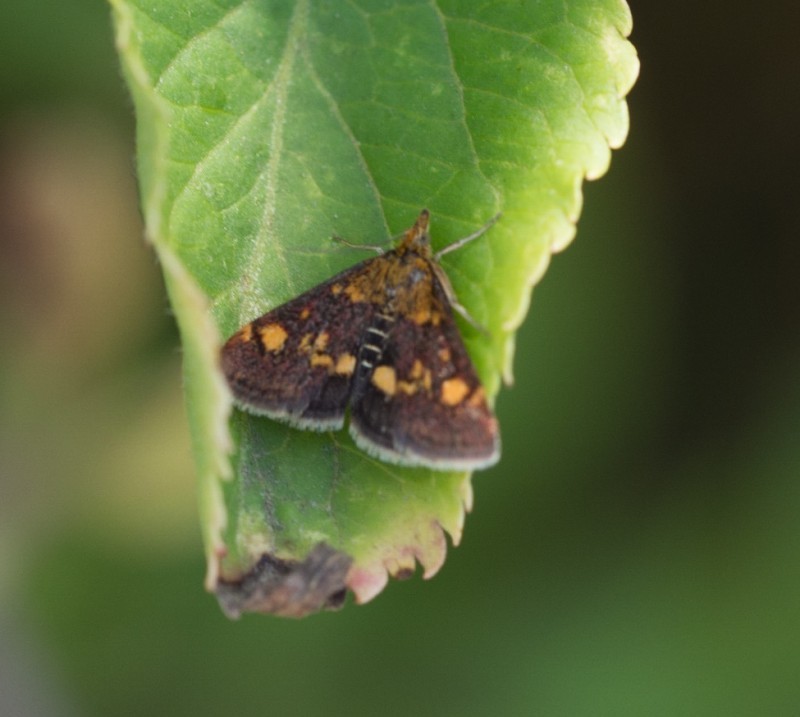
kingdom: Animalia
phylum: Arthropoda
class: Insecta
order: Lepidoptera
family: Crambidae
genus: Pyrausta
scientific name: Pyrausta aurata
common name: Small purple & gold
